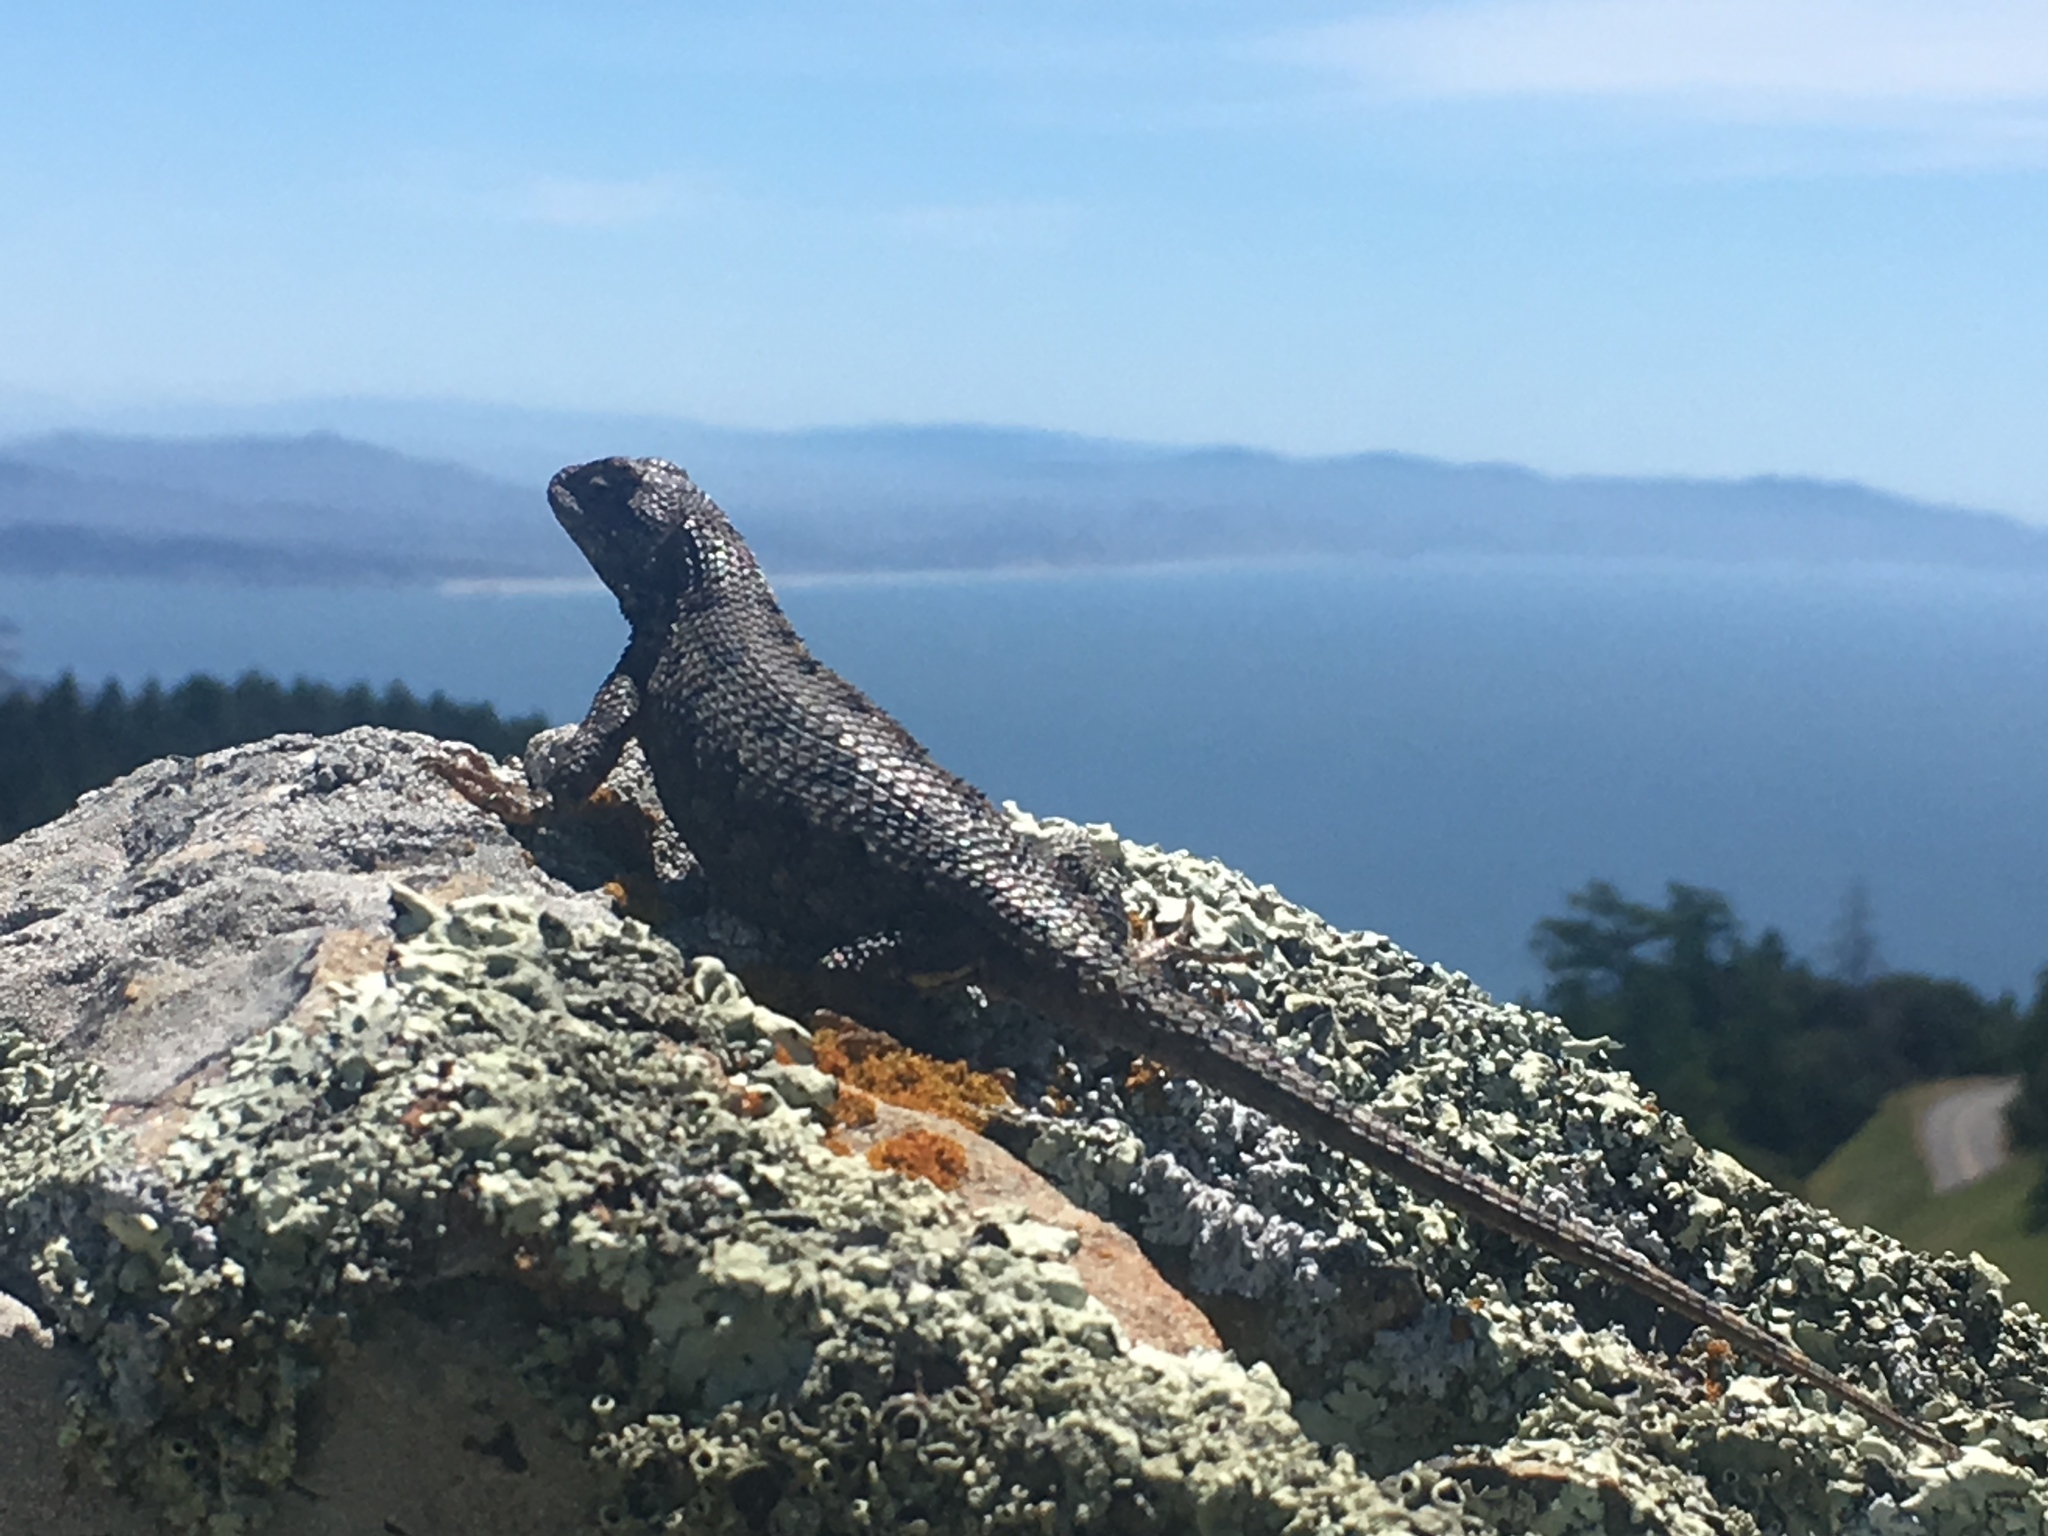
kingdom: Animalia
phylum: Chordata
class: Squamata
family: Phrynosomatidae
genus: Sceloporus
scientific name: Sceloporus occidentalis
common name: Western fence lizard
